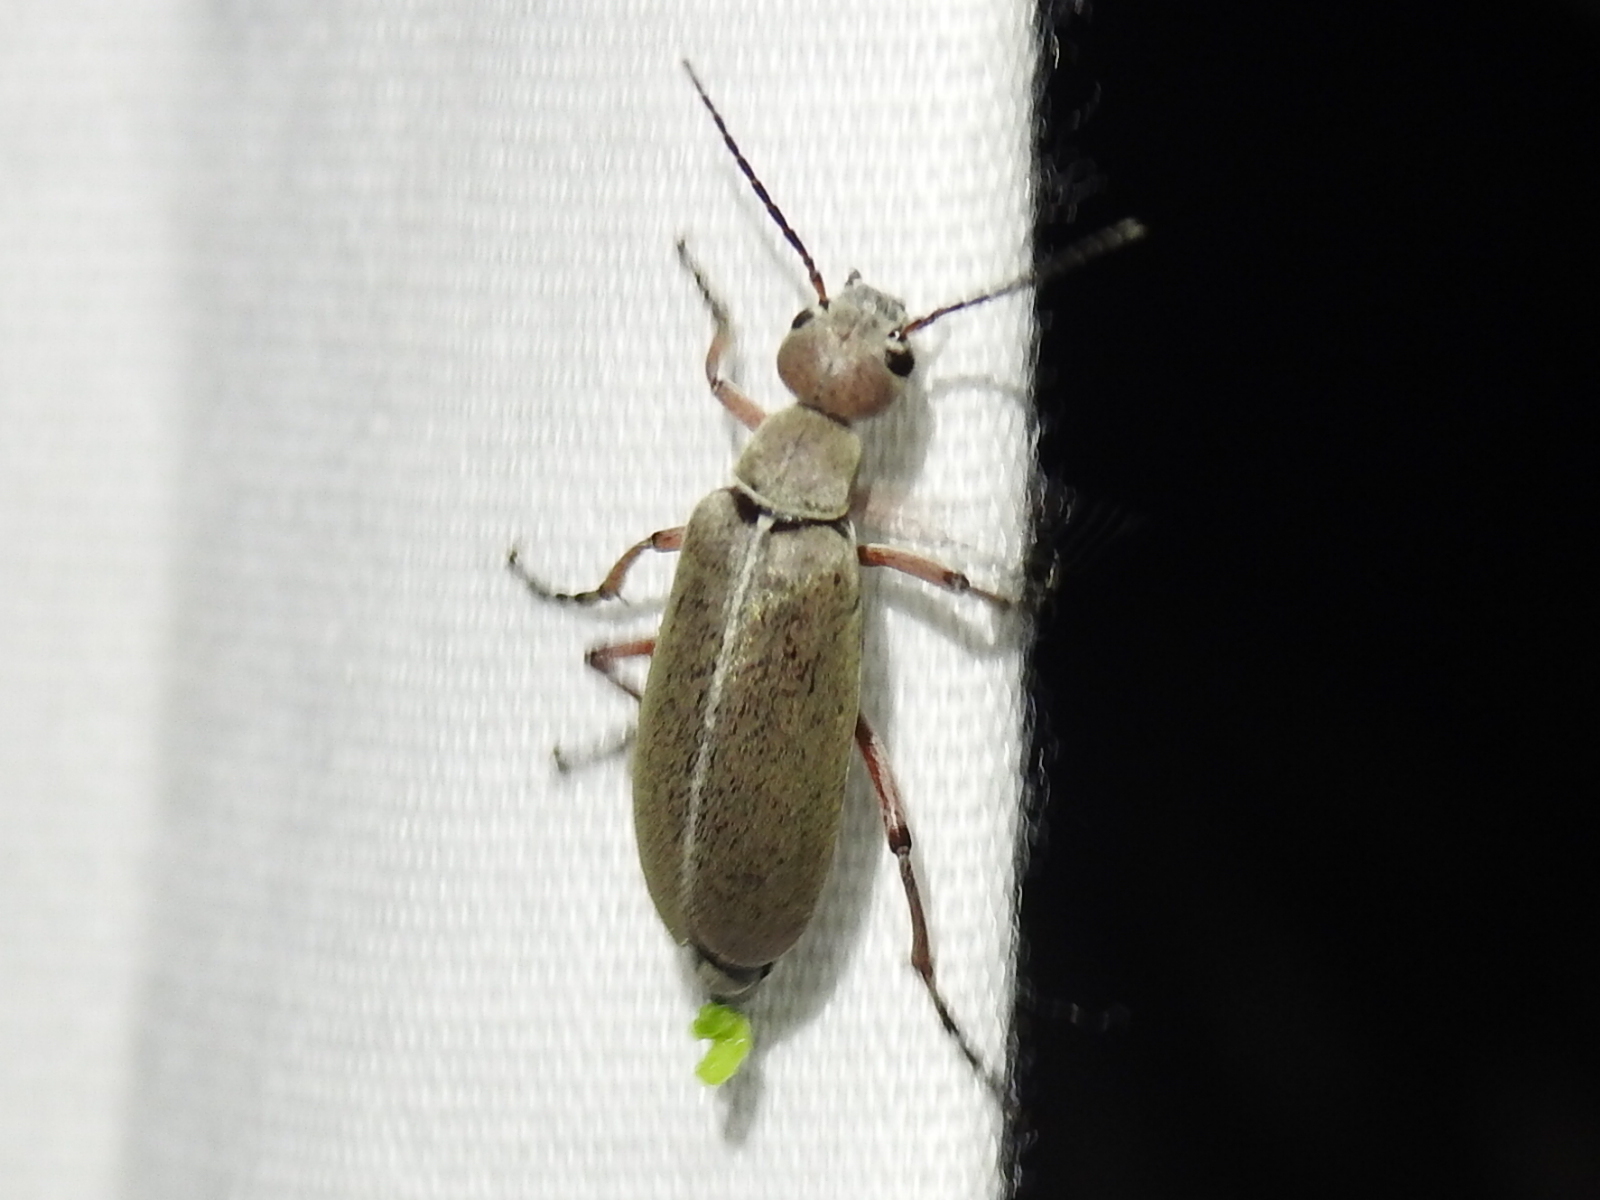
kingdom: Animalia
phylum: Arthropoda
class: Insecta
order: Coleoptera
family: Meloidae
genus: Epicauta
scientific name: Epicauta nigritarsis
